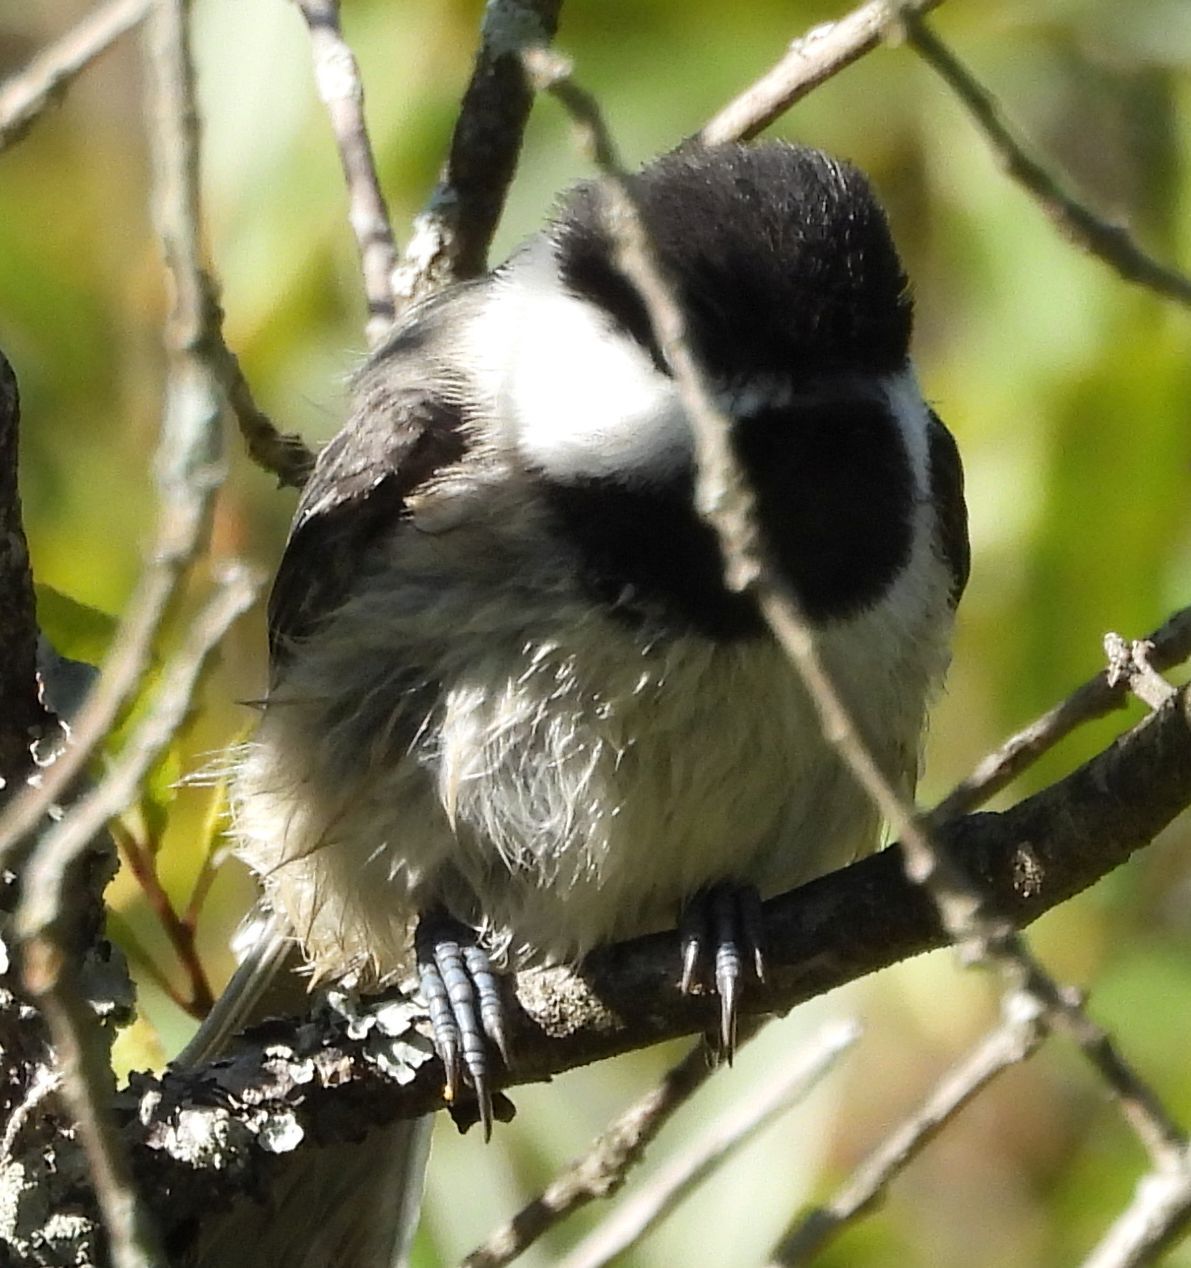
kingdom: Animalia
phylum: Chordata
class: Aves
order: Passeriformes
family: Paridae
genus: Poecile
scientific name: Poecile atricapillus
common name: Black-capped chickadee
